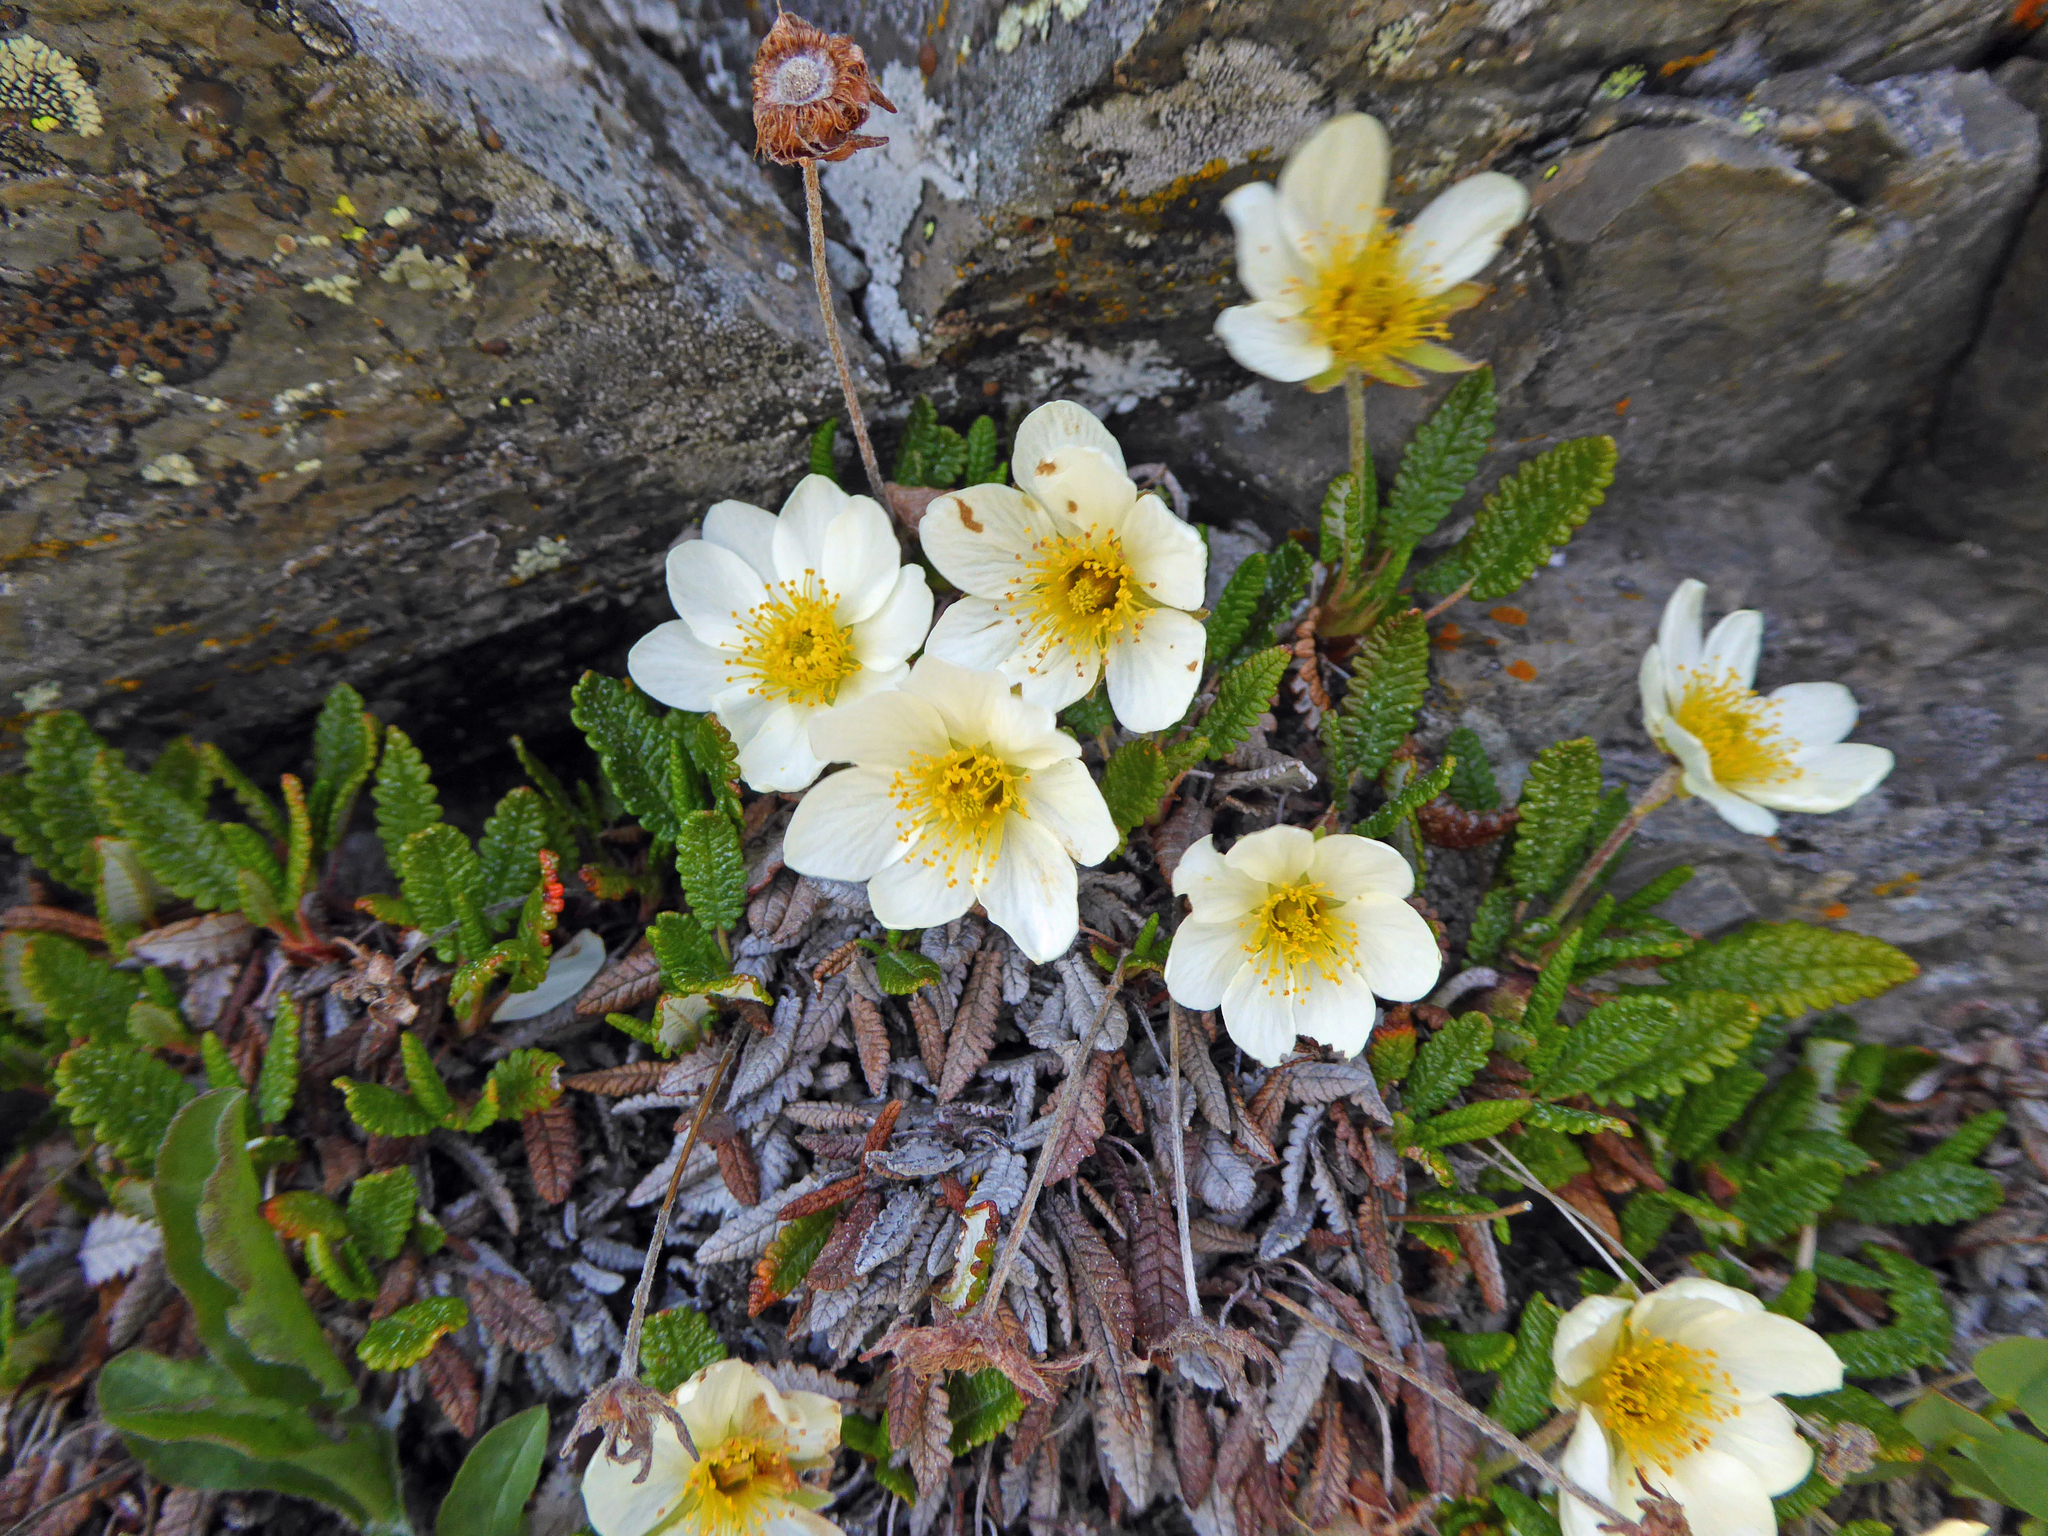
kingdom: Plantae
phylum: Tracheophyta
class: Magnoliopsida
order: Rosales
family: Rosaceae
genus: Dryas
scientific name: Dryas octopetala
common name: Eight-petal mountain-avens
